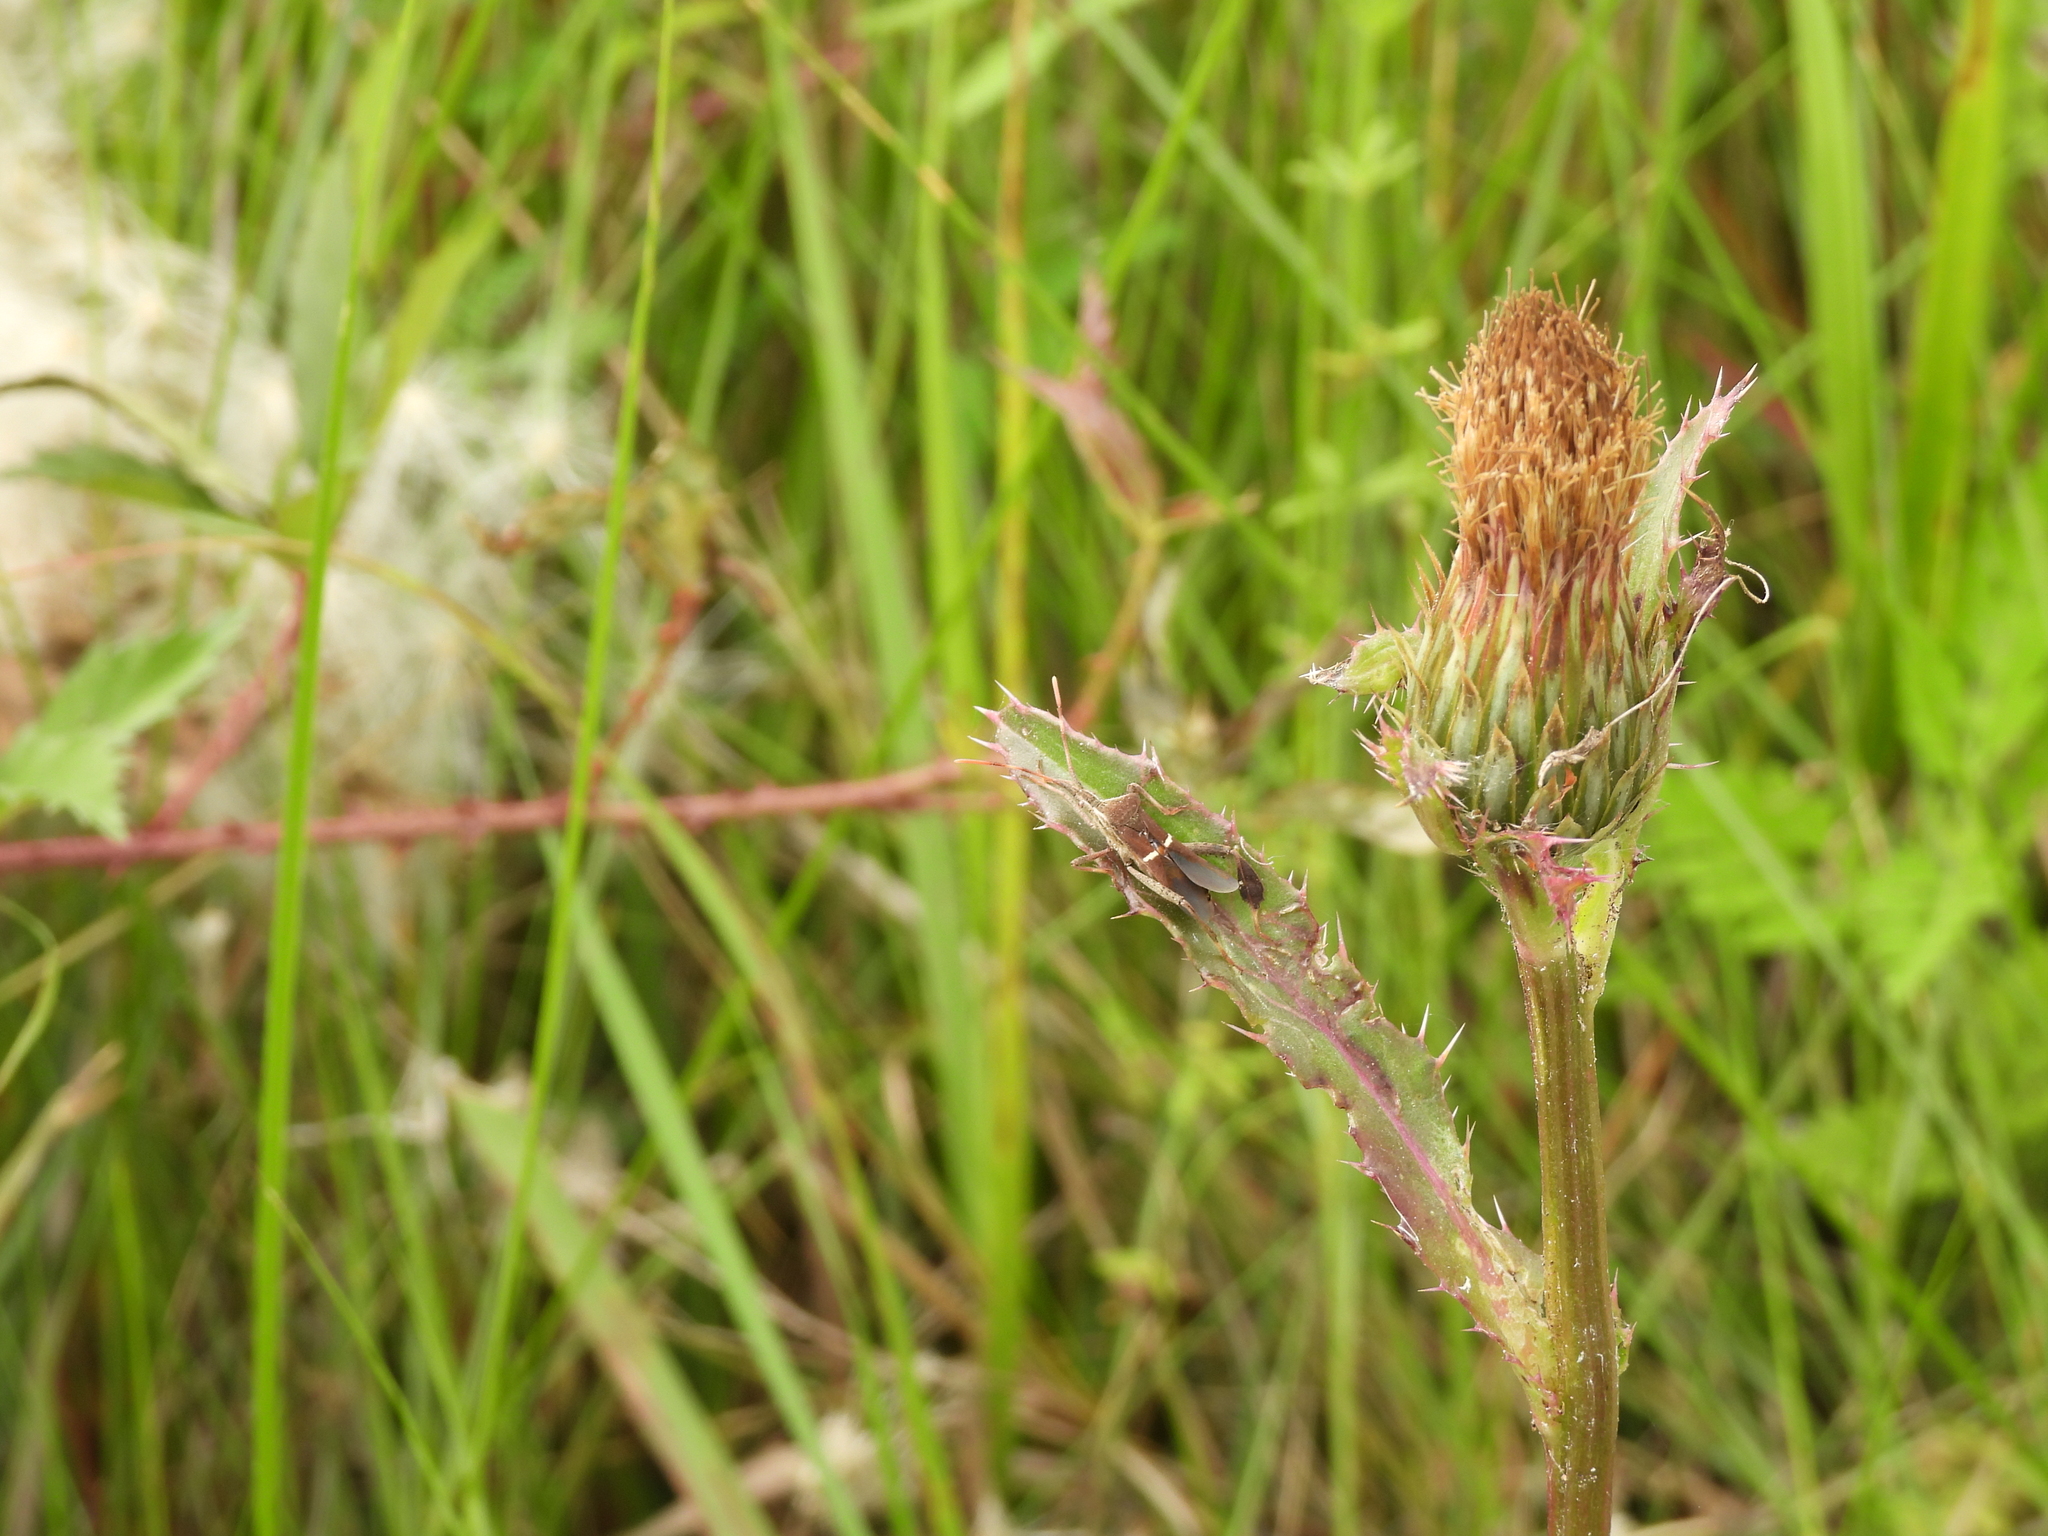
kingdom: Animalia
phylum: Arthropoda
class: Insecta
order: Hemiptera
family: Coreidae
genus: Leptoglossus
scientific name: Leptoglossus phyllopus
